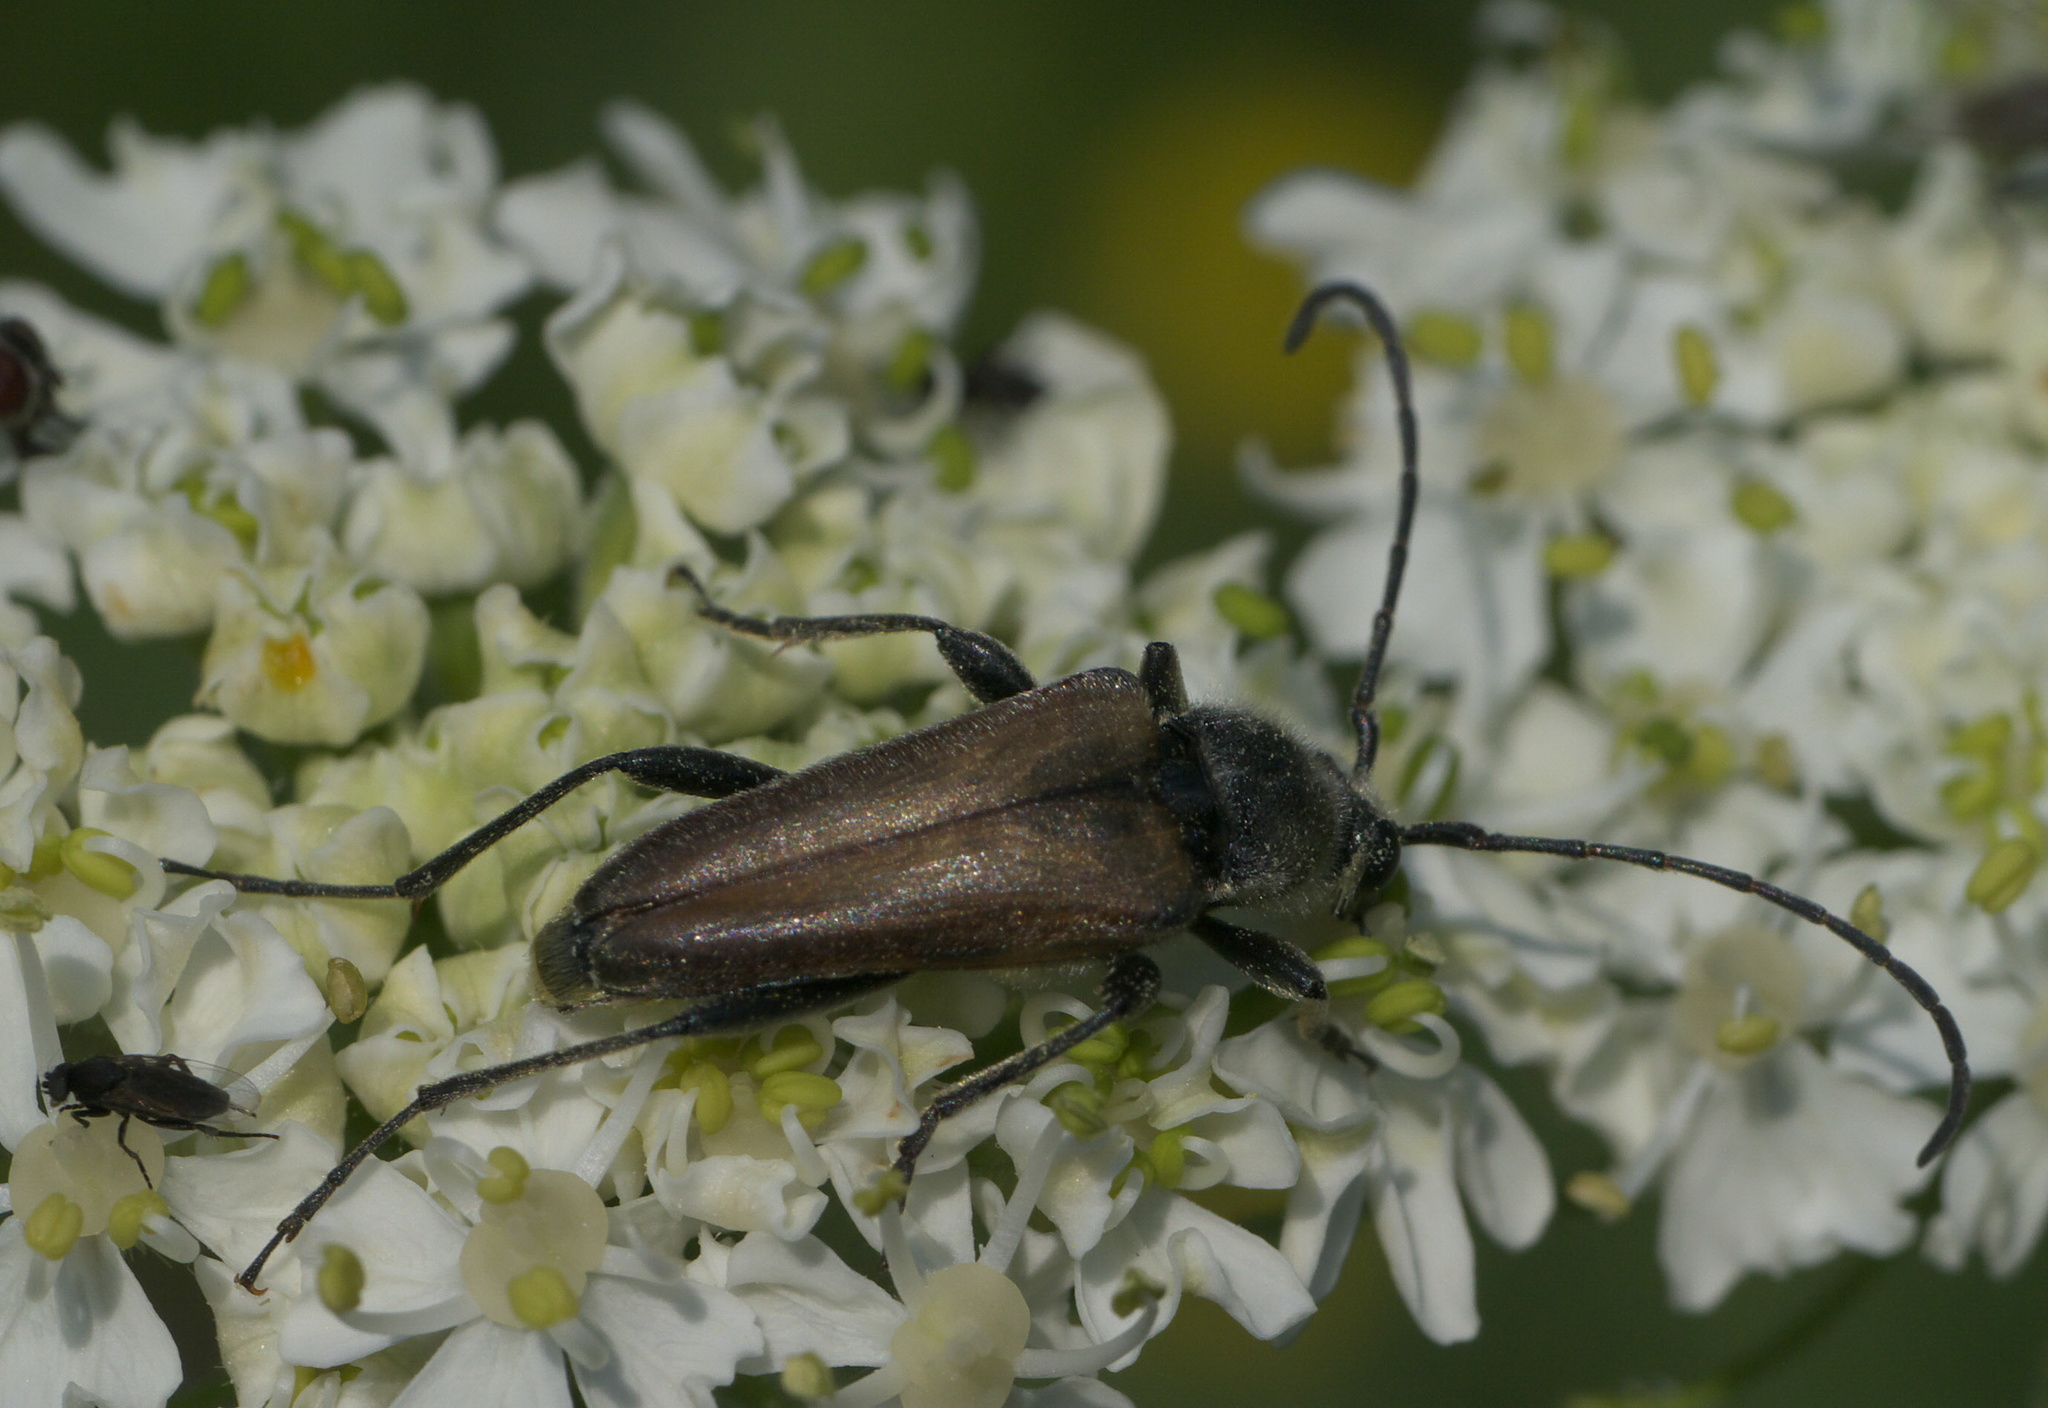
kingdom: Animalia
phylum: Arthropoda
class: Insecta
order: Coleoptera
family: Cerambycidae
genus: Cosmosalia
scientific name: Cosmosalia chrysocoma
